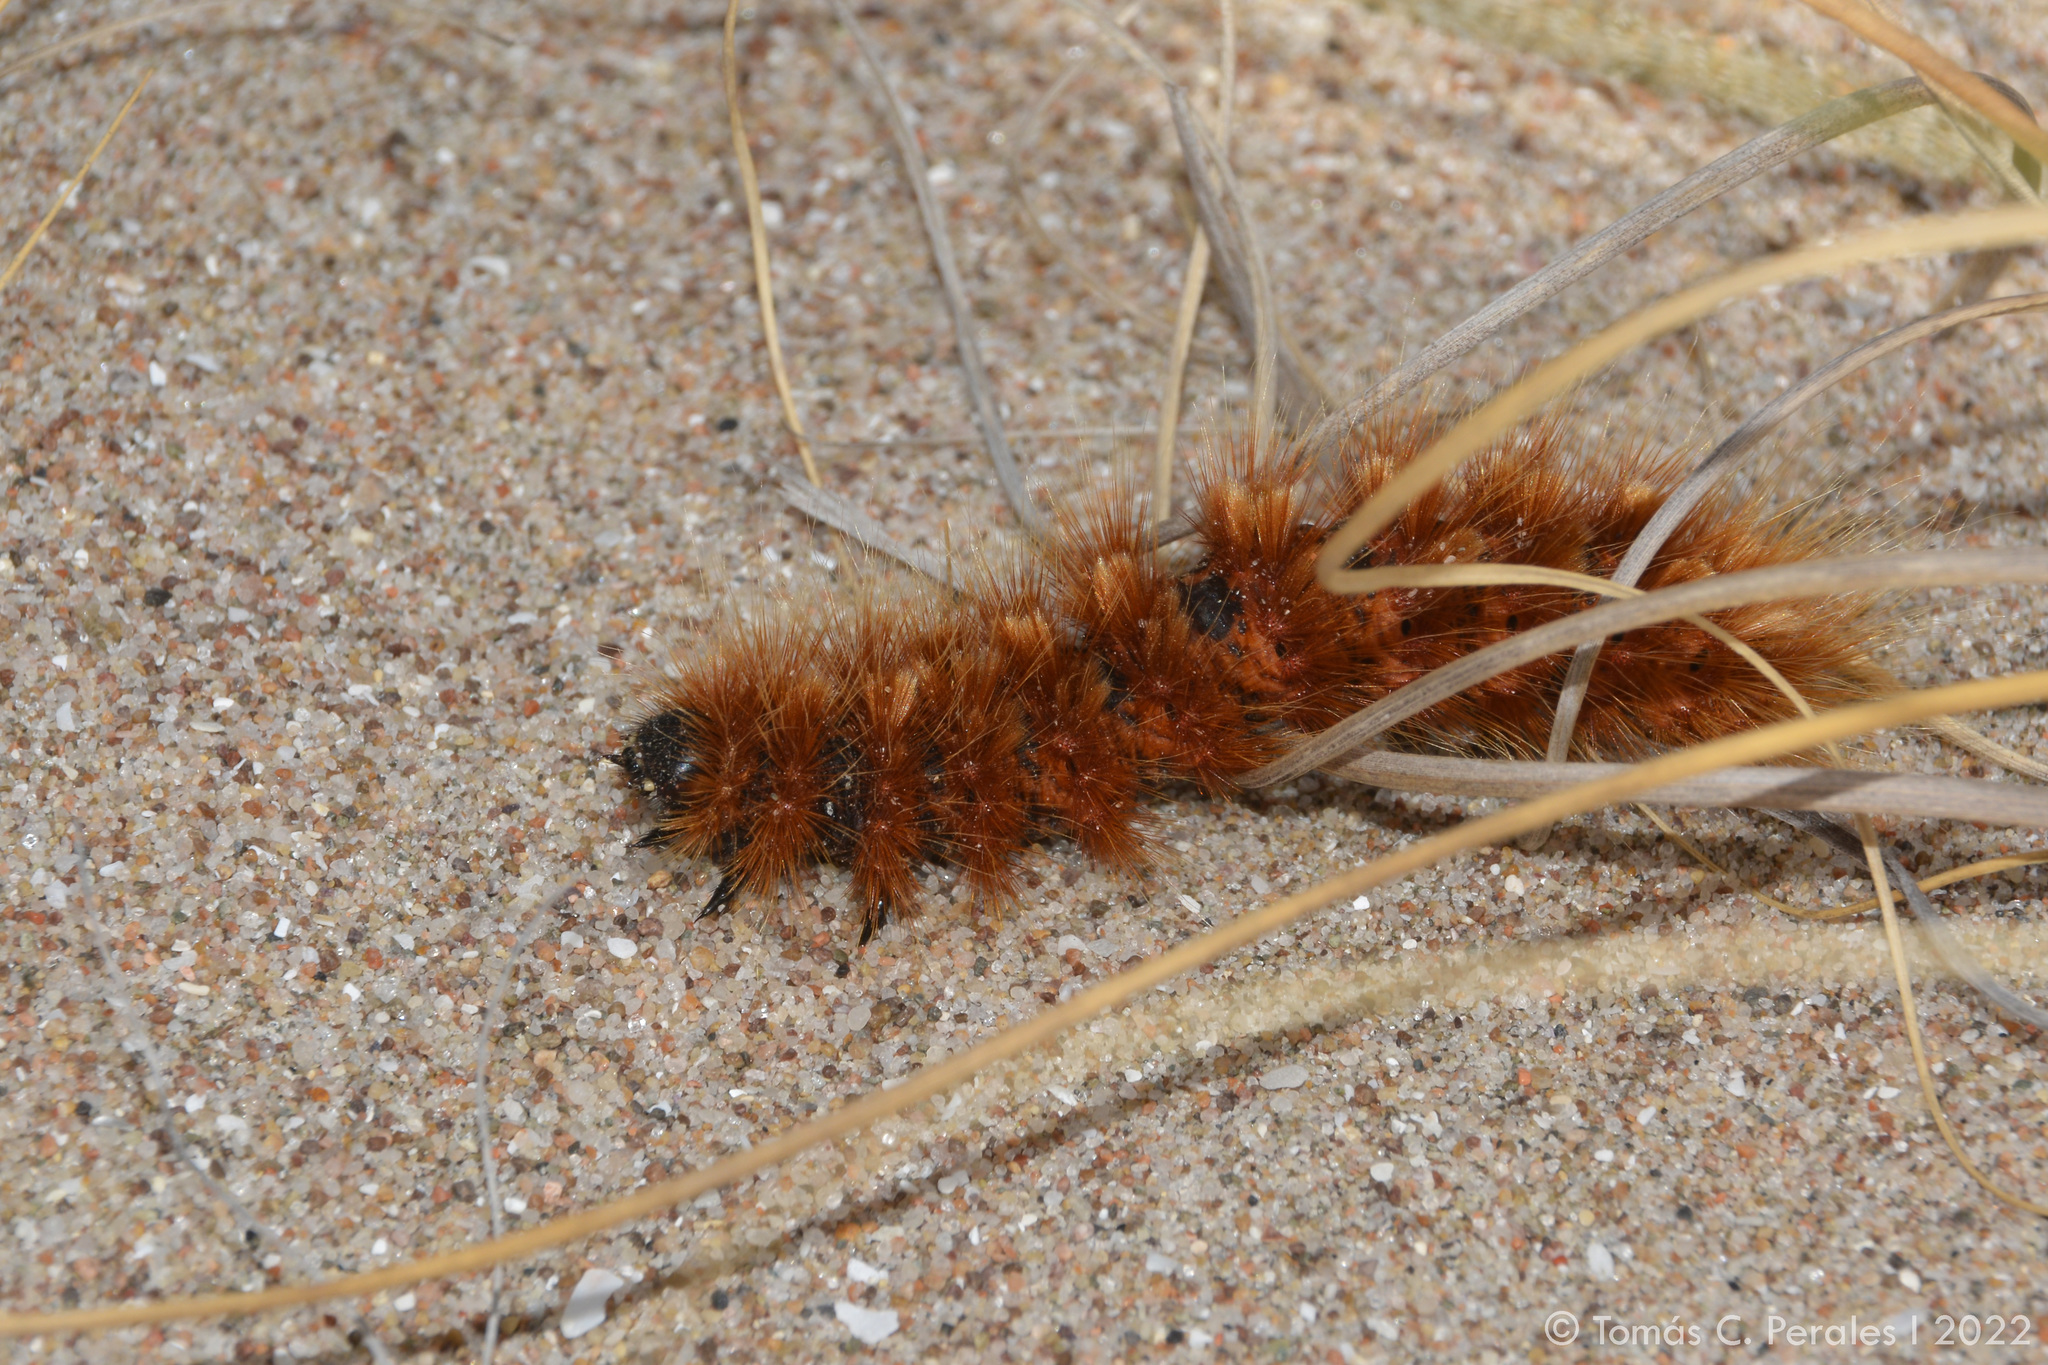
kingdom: Animalia
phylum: Arthropoda
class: Insecta
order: Lepidoptera
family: Erebidae
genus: Paracles
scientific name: Paracles severa
